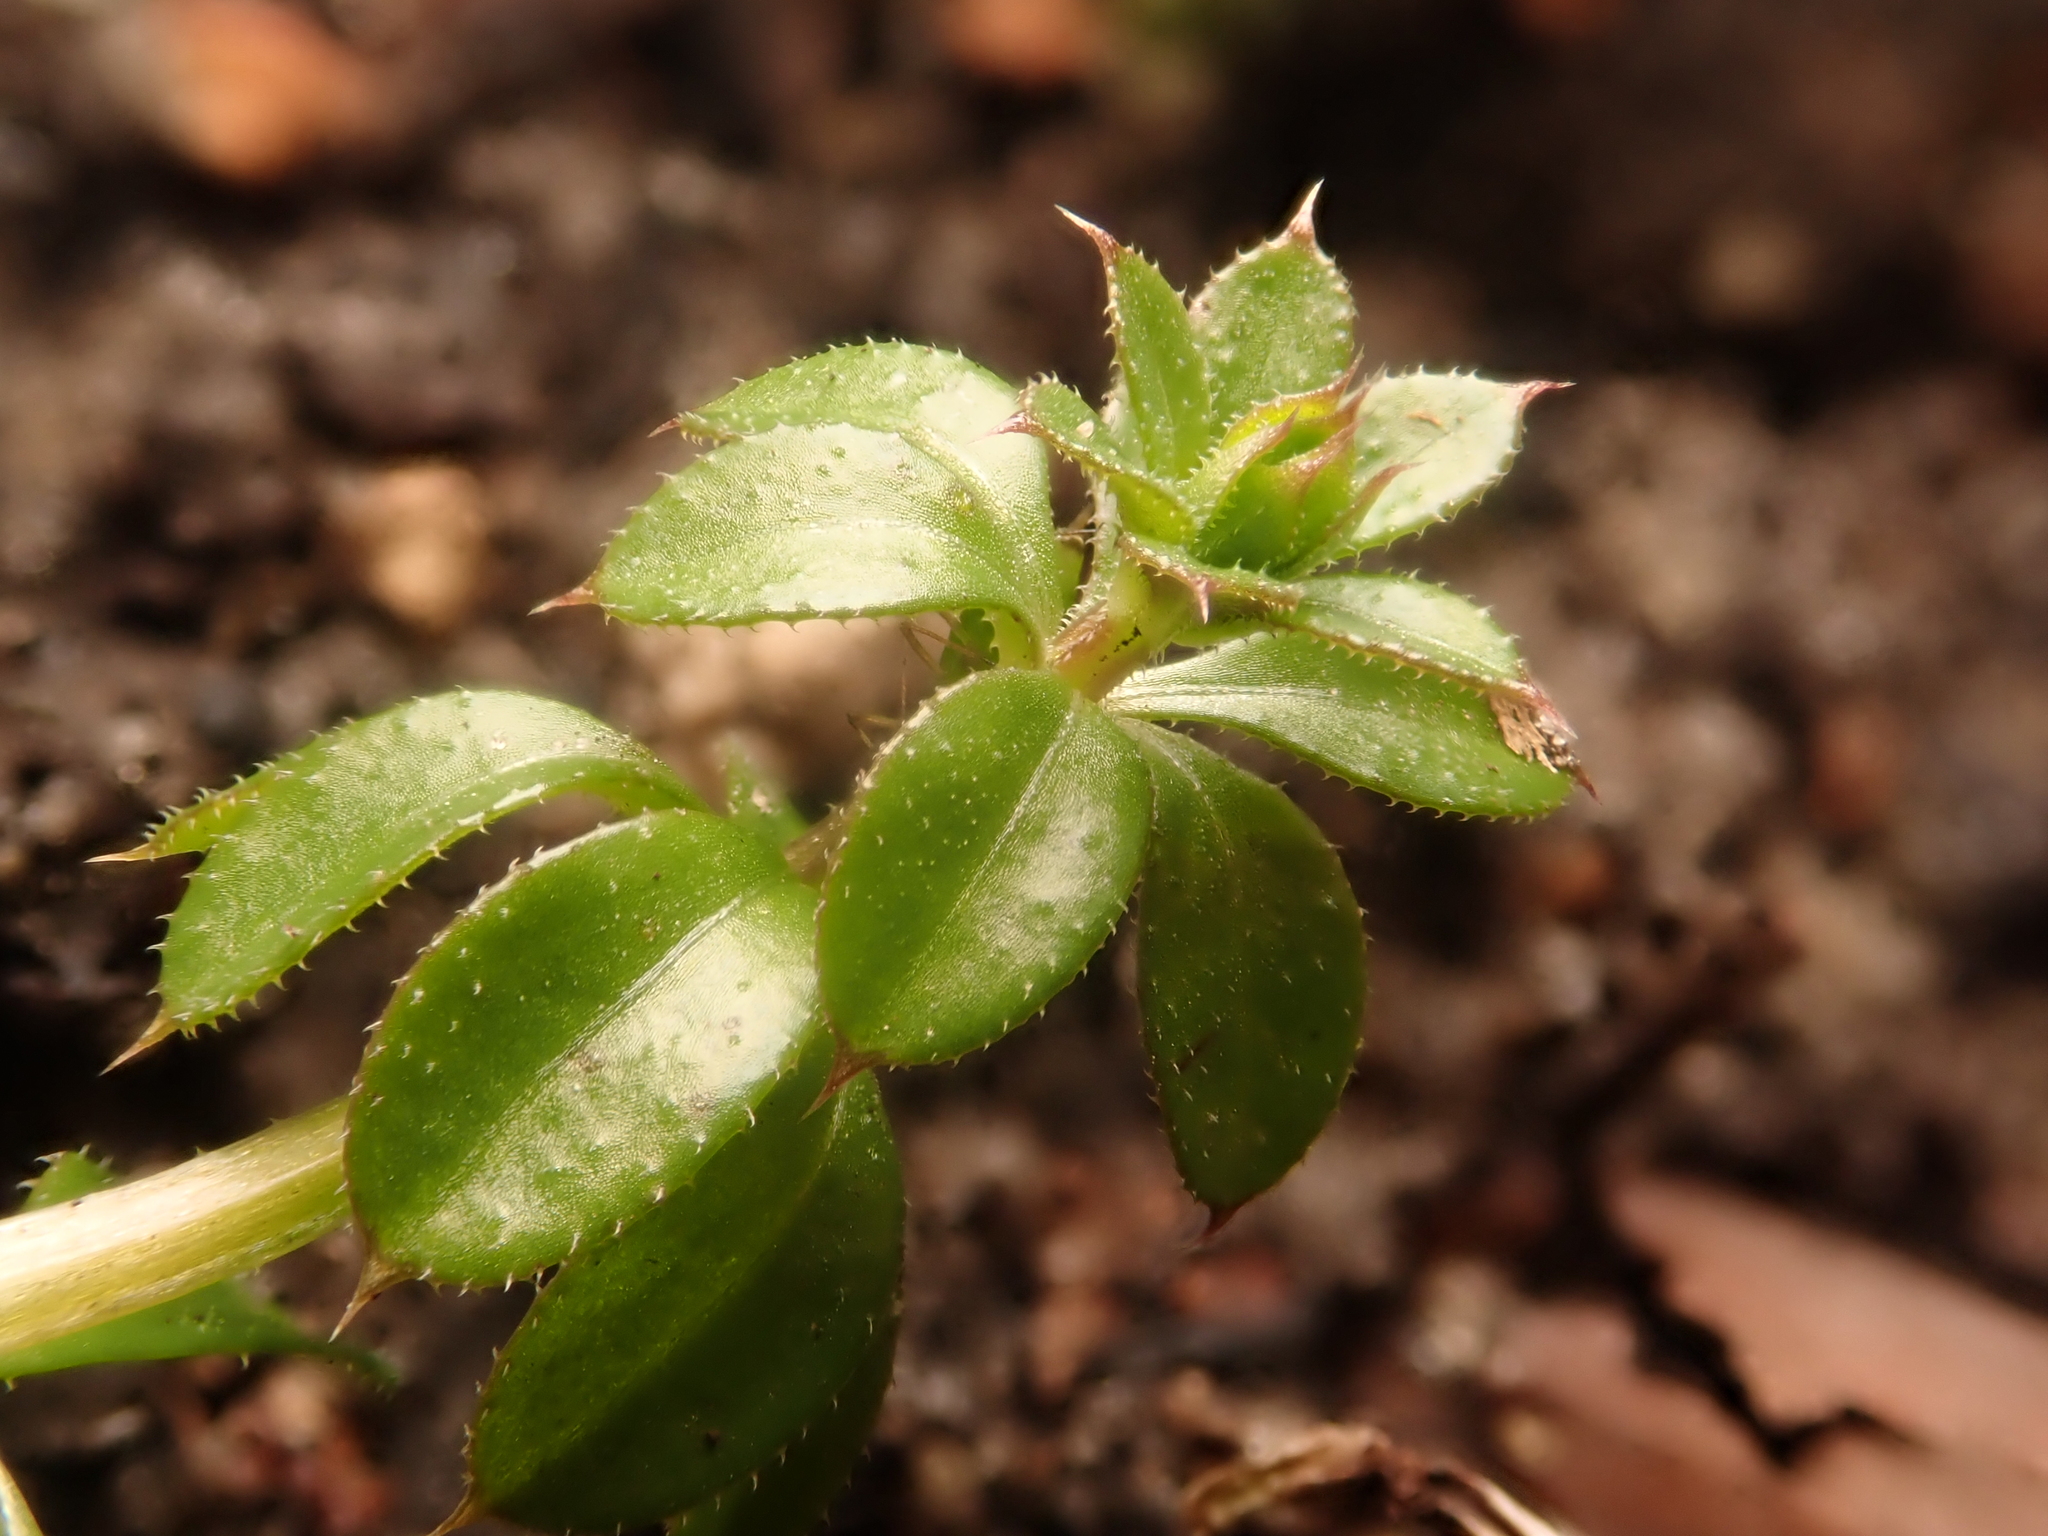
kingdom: Plantae
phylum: Tracheophyta
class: Magnoliopsida
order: Gentianales
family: Rubiaceae
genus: Galium
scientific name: Galium aparine
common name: Cleavers
